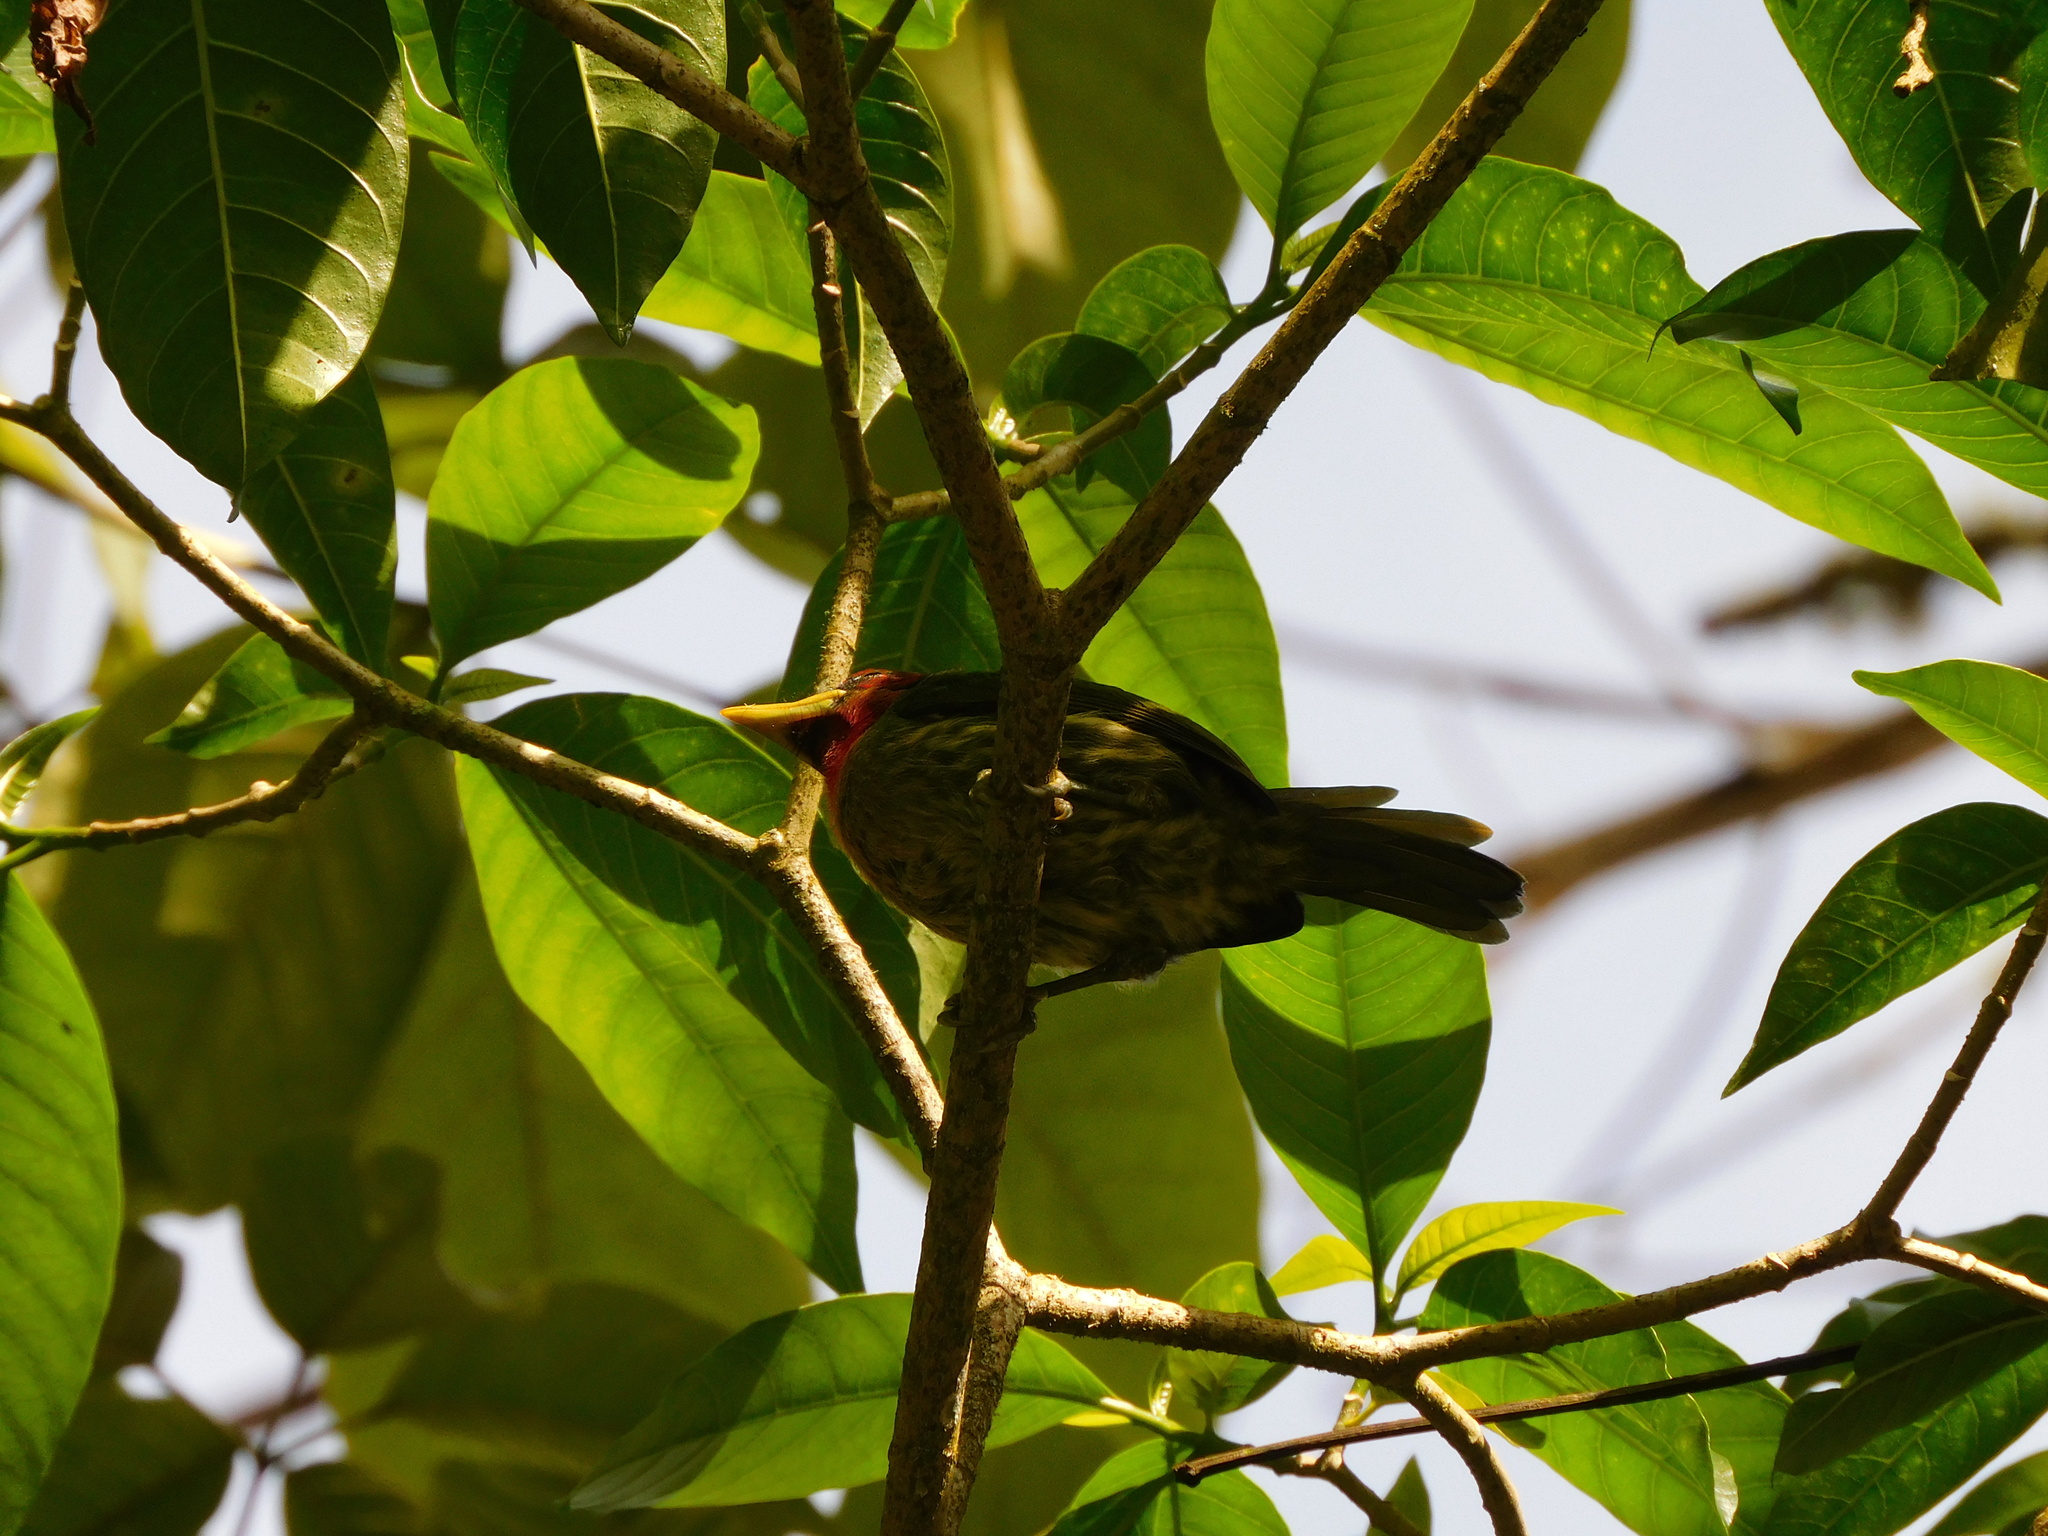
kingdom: Animalia
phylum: Chordata
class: Aves
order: Piciformes
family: Capitonidae
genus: Eubucco
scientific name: Eubucco bourcierii
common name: Red-headed barbet
